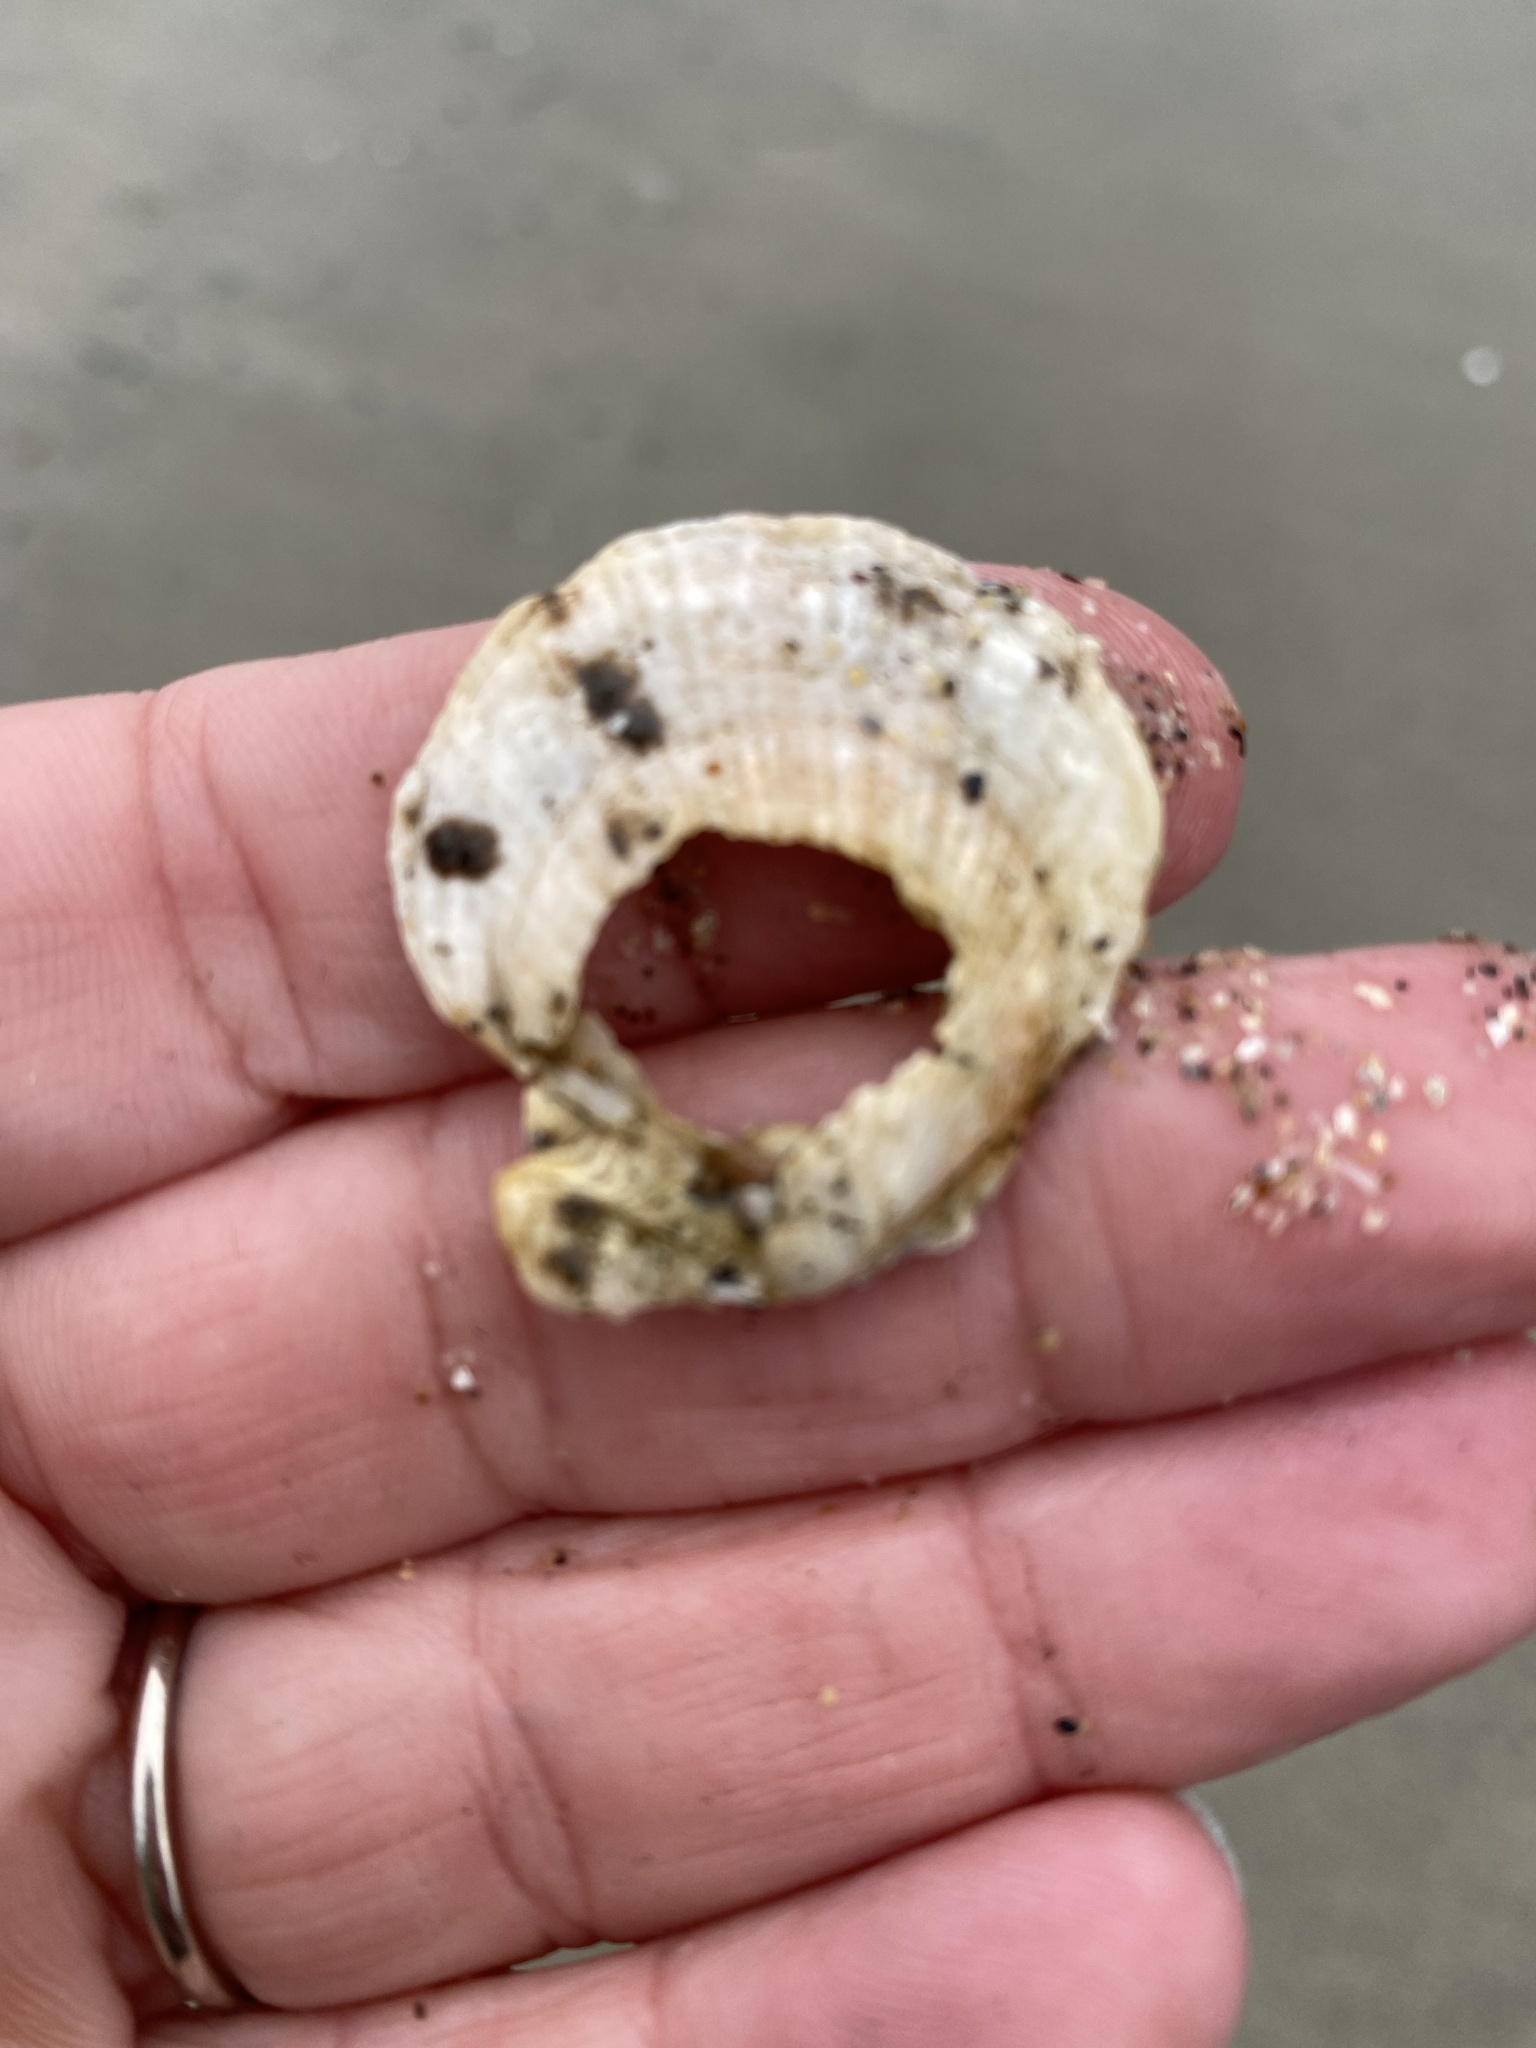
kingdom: Animalia
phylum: Mollusca
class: Bivalvia
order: Pectinida
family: Pectinidae
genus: Crassadoma
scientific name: Crassadoma gigantea
